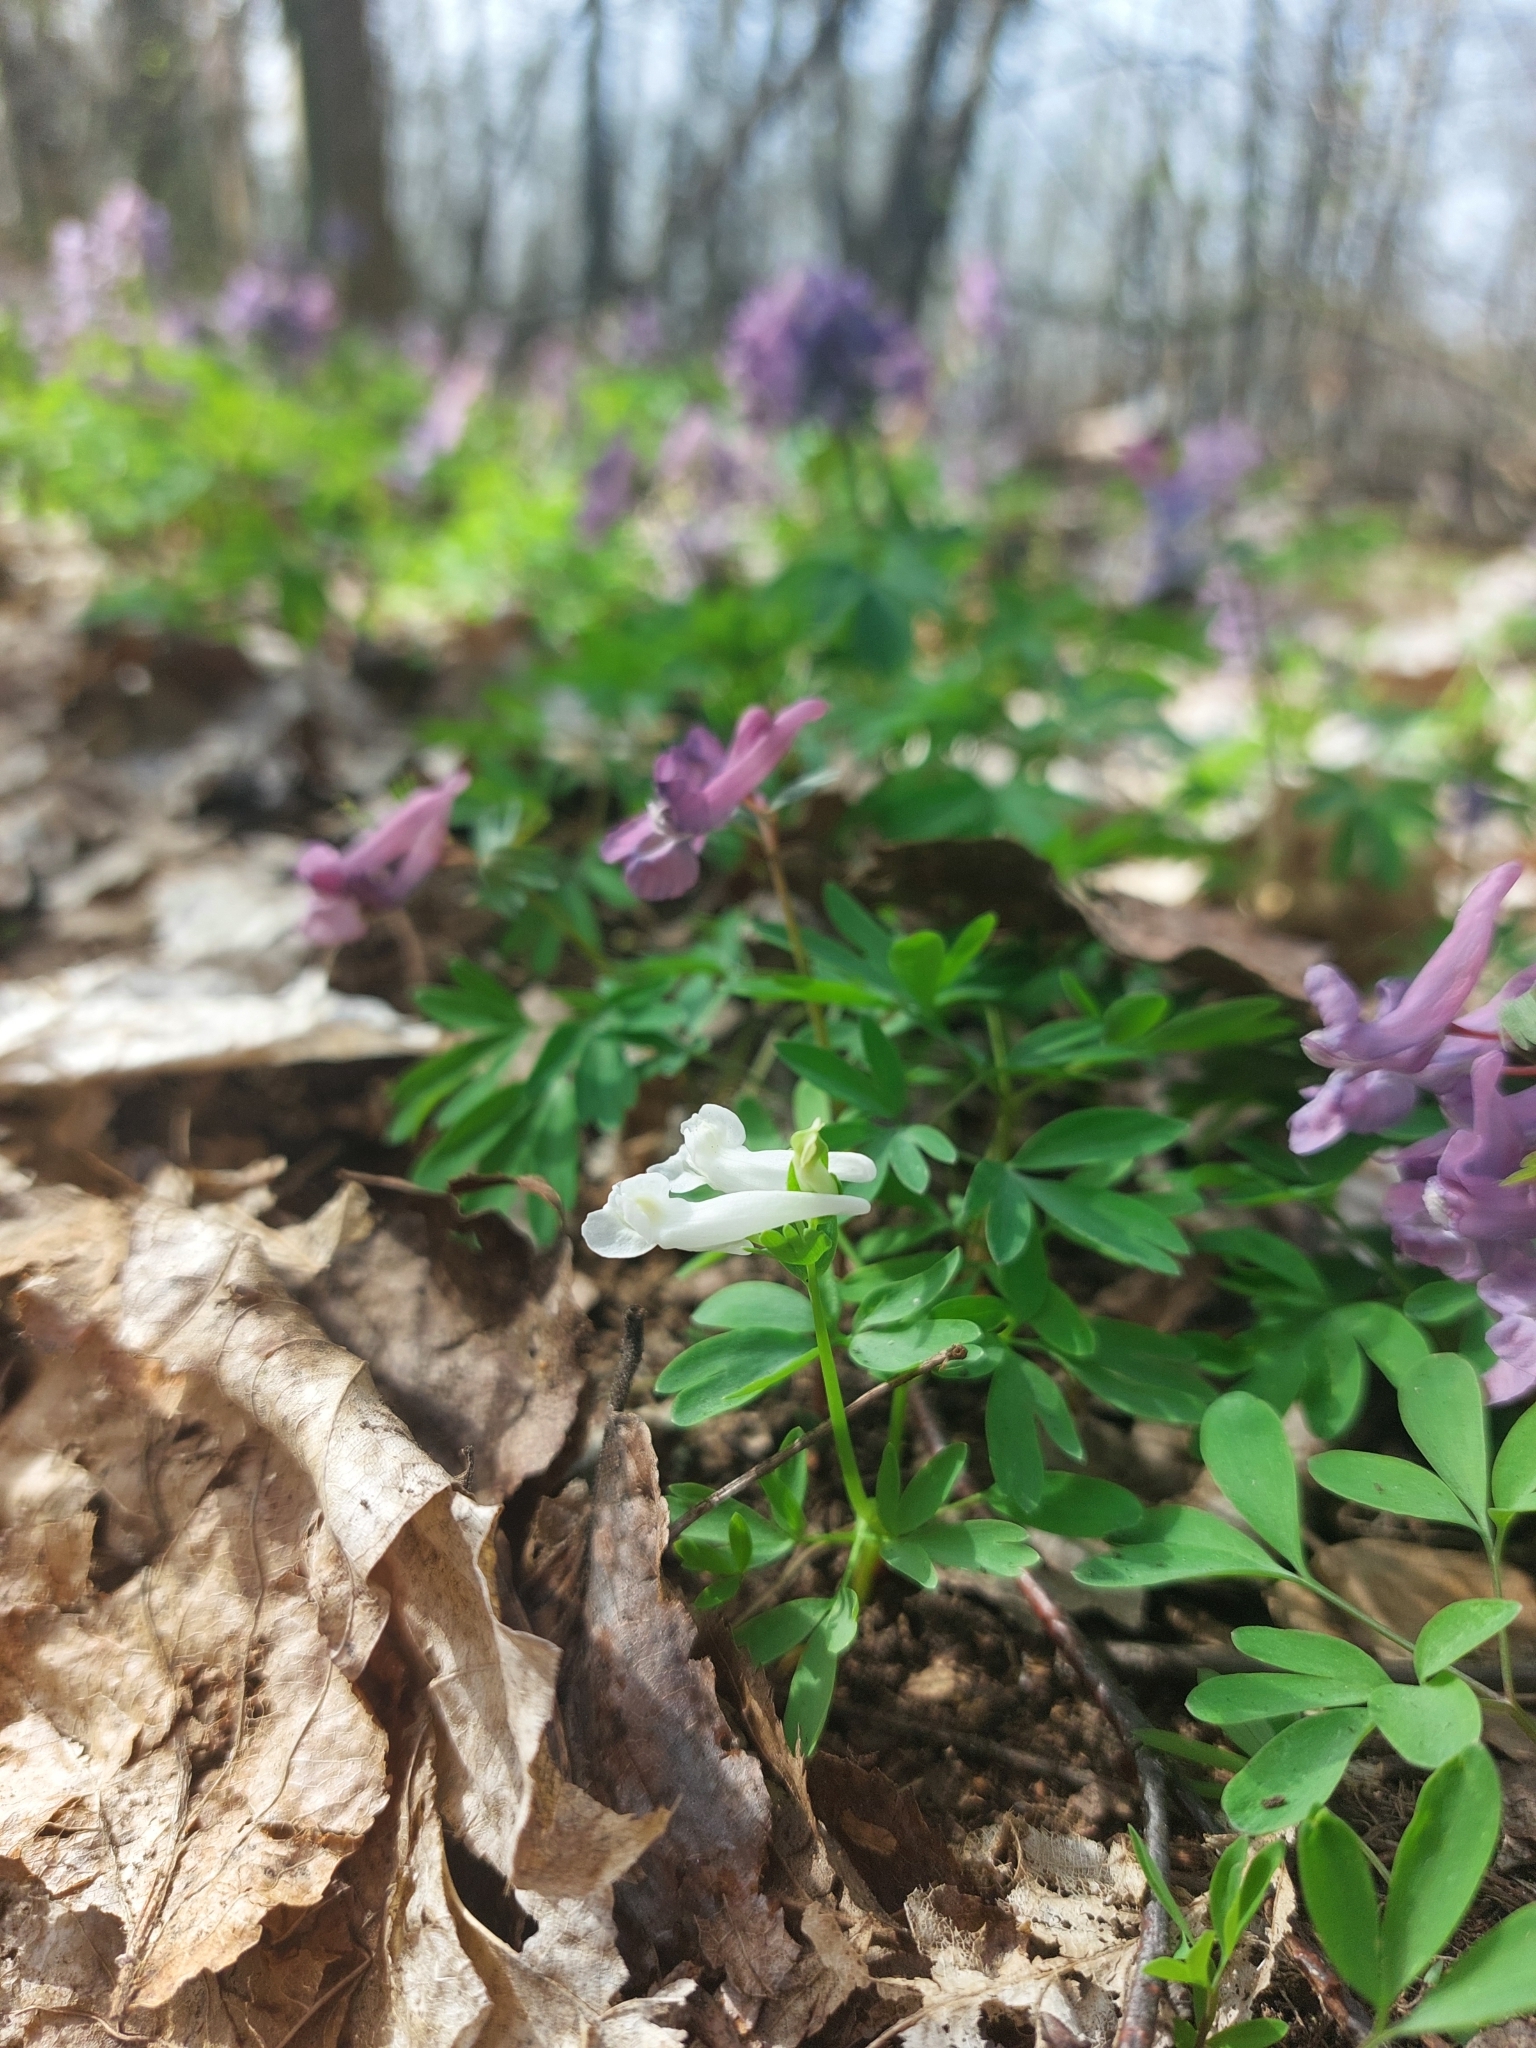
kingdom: Plantae
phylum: Tracheophyta
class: Magnoliopsida
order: Ranunculales
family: Papaveraceae
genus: Corydalis
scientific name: Corydalis solida
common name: Bird-in-a-bush
